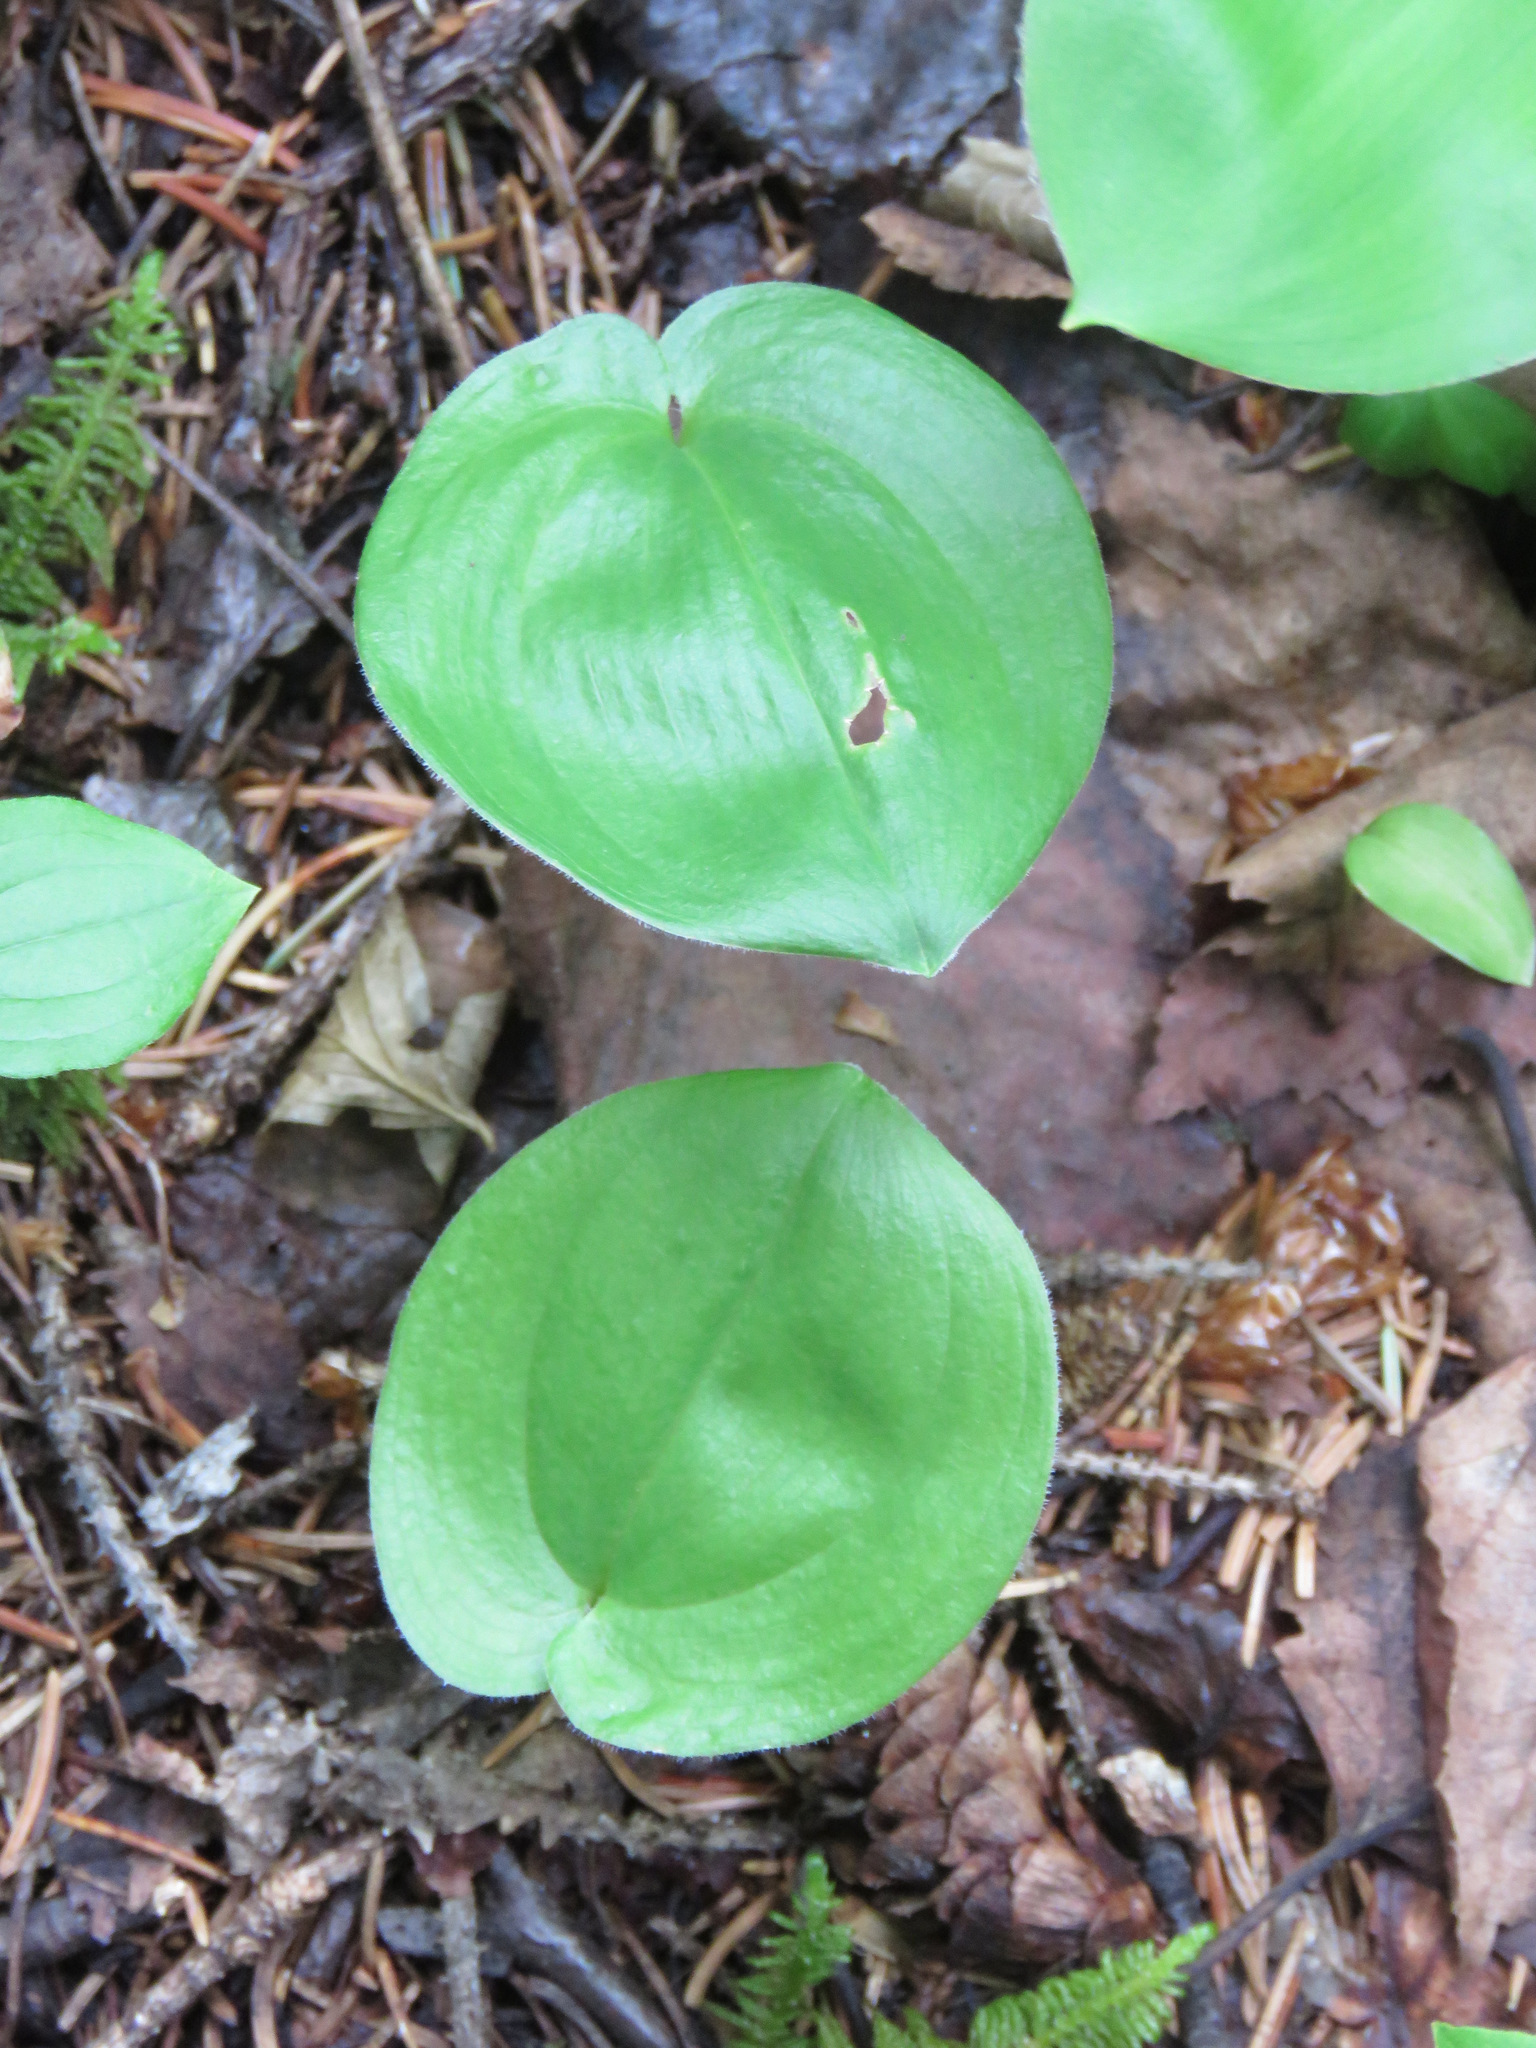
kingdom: Plantae
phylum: Tracheophyta
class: Liliopsida
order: Asparagales
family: Asparagaceae
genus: Maianthemum
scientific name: Maianthemum canadense
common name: False lily-of-the-valley
